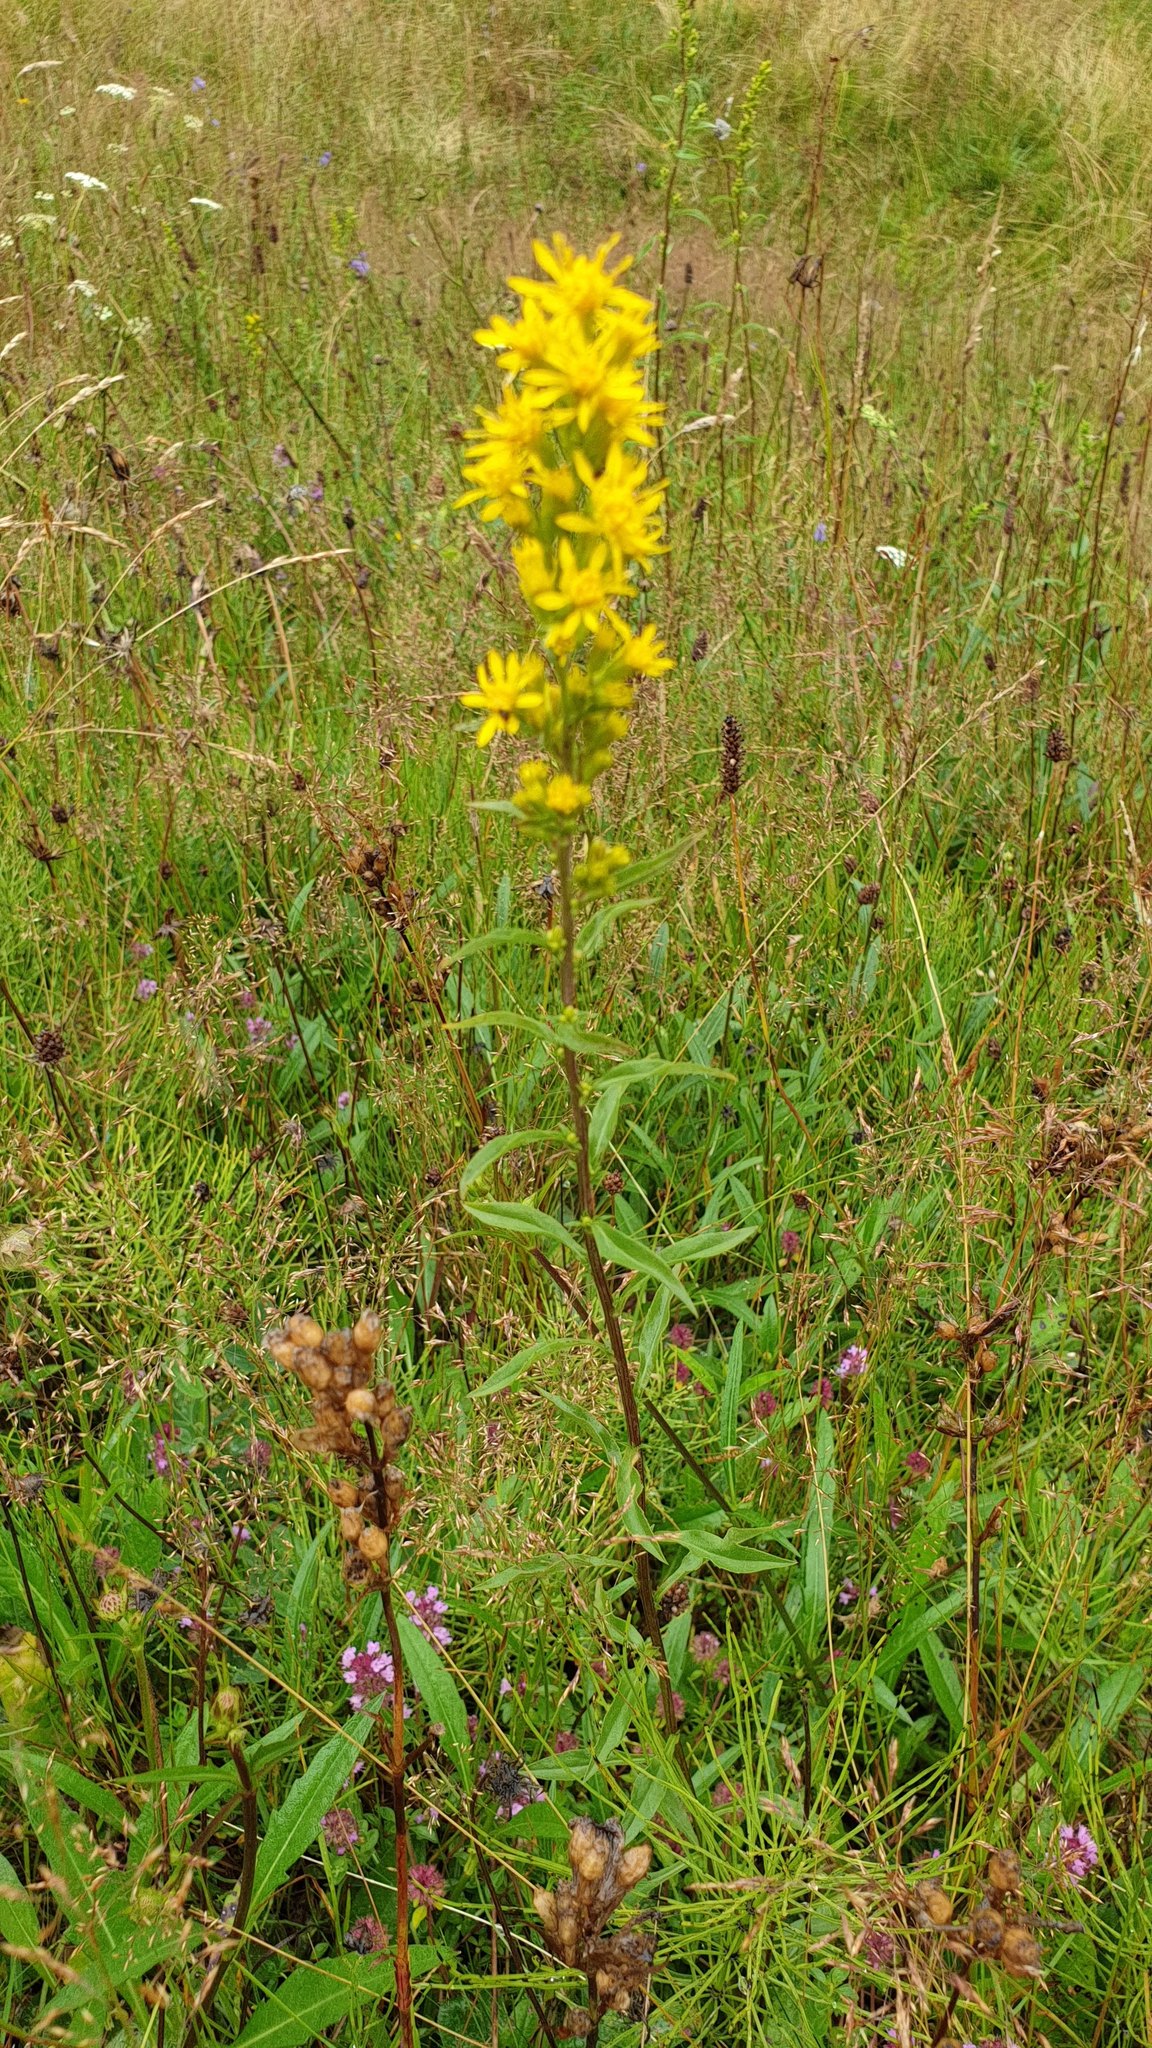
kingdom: Plantae
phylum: Tracheophyta
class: Magnoliopsida
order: Asterales
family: Asteraceae
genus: Solidago
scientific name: Solidago virgaurea
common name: Goldenrod
